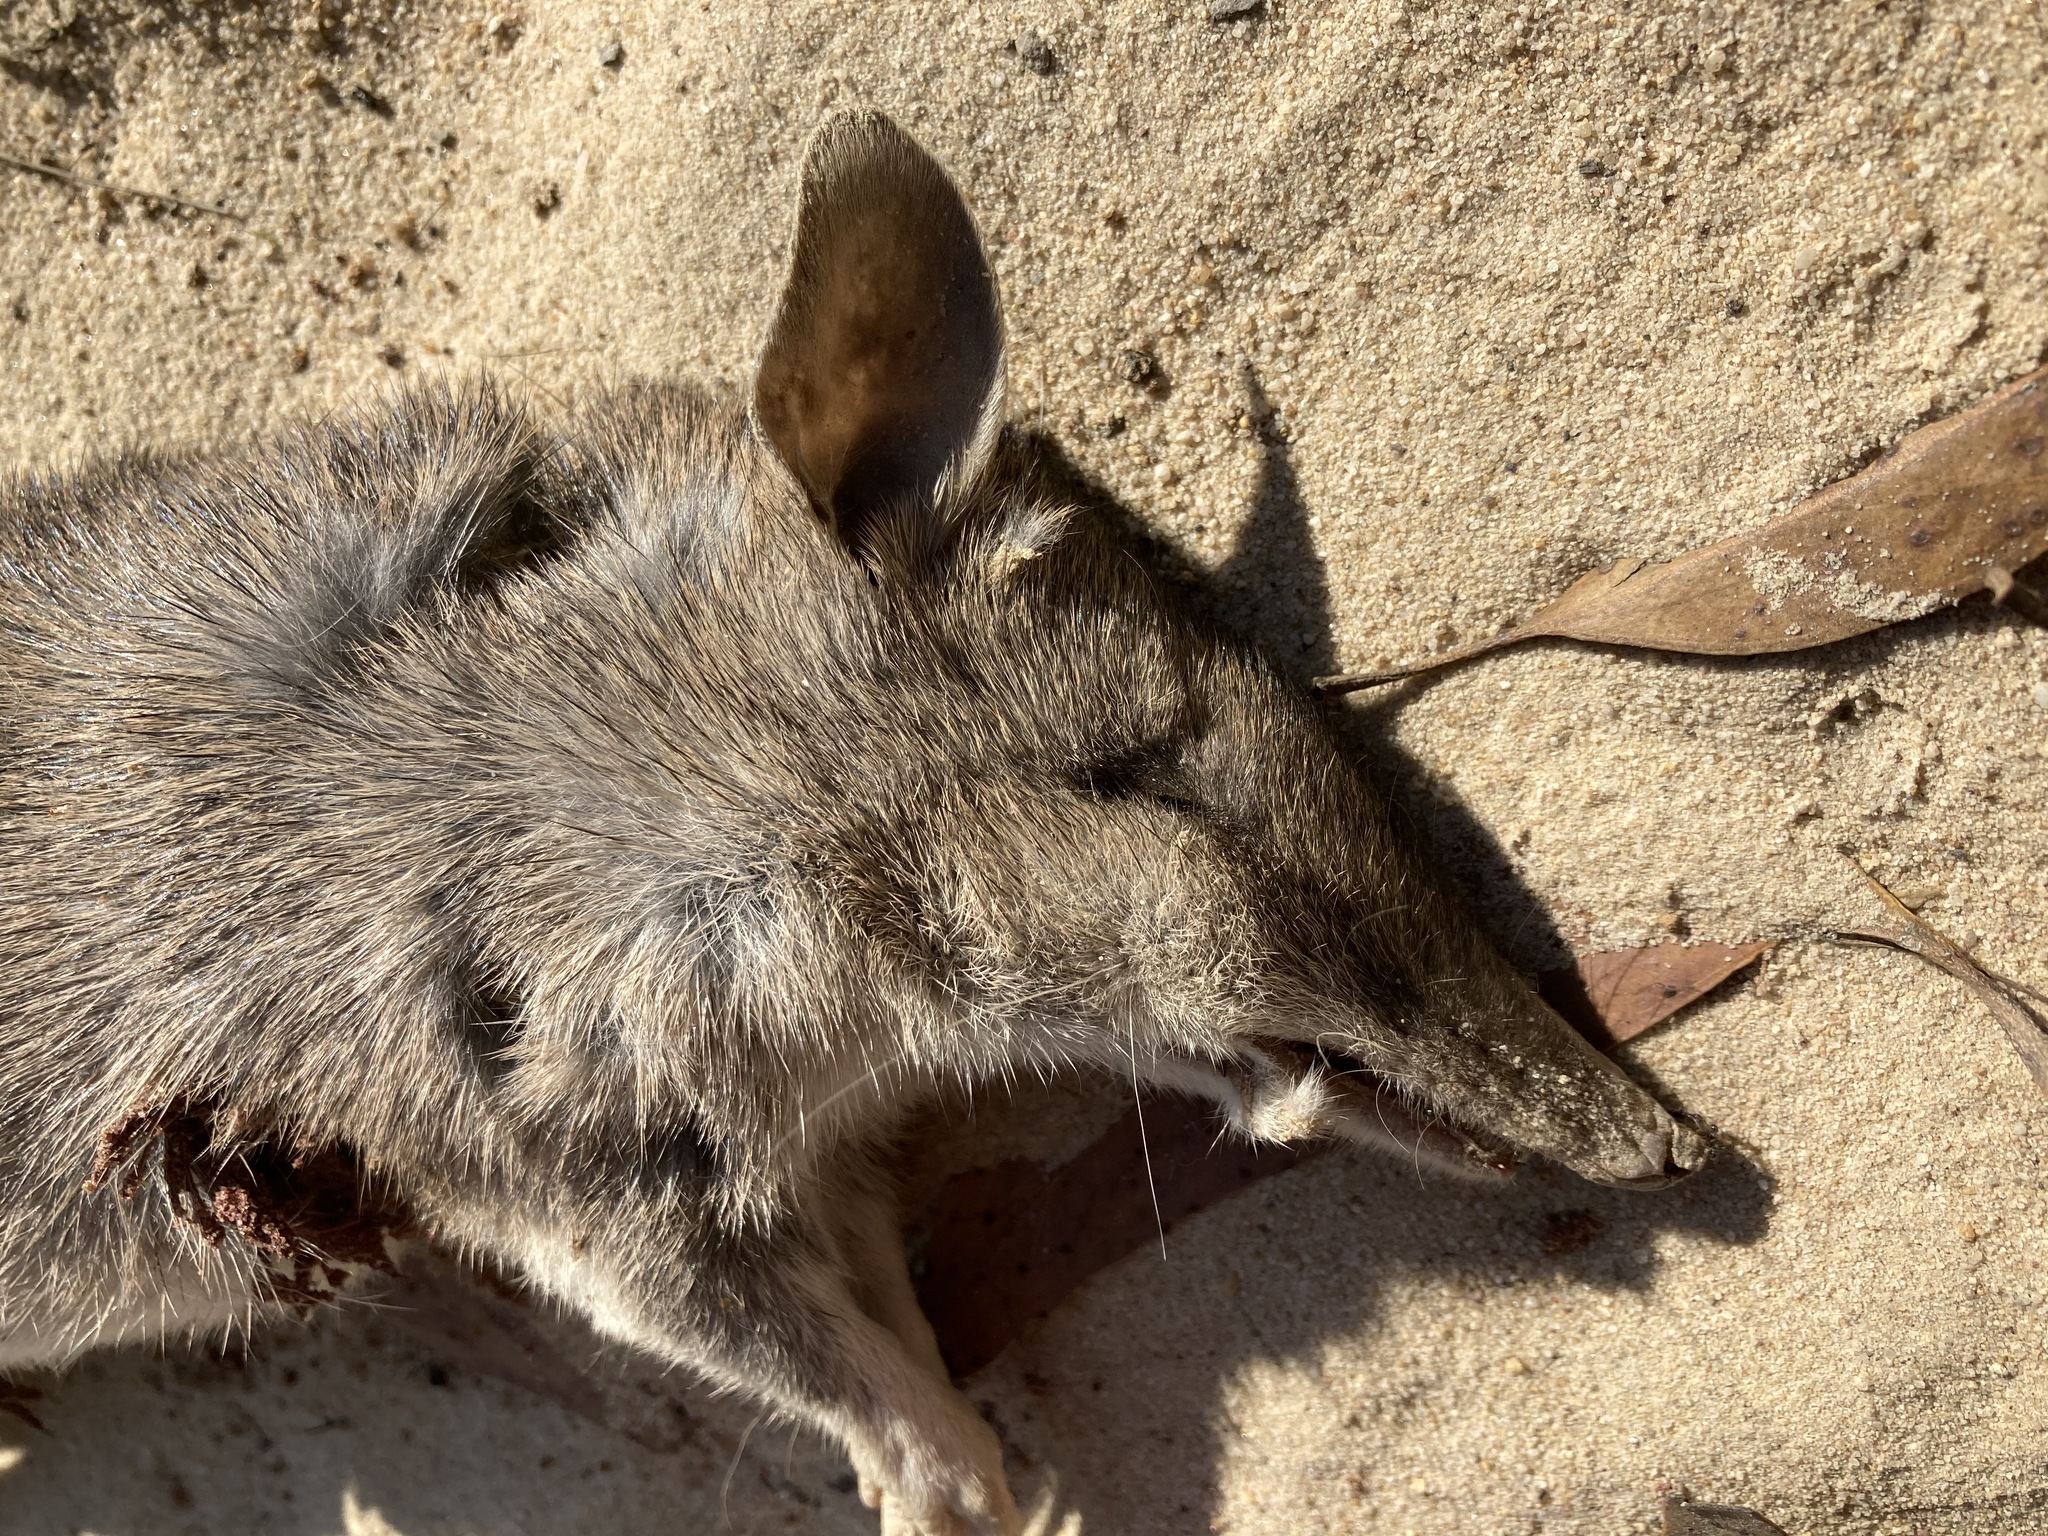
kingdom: Animalia
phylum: Chordata
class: Mammalia
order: Peramelemorphia
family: Peramelidae
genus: Perameles
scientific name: Perameles nasuta
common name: Long-nosed bandicoot
